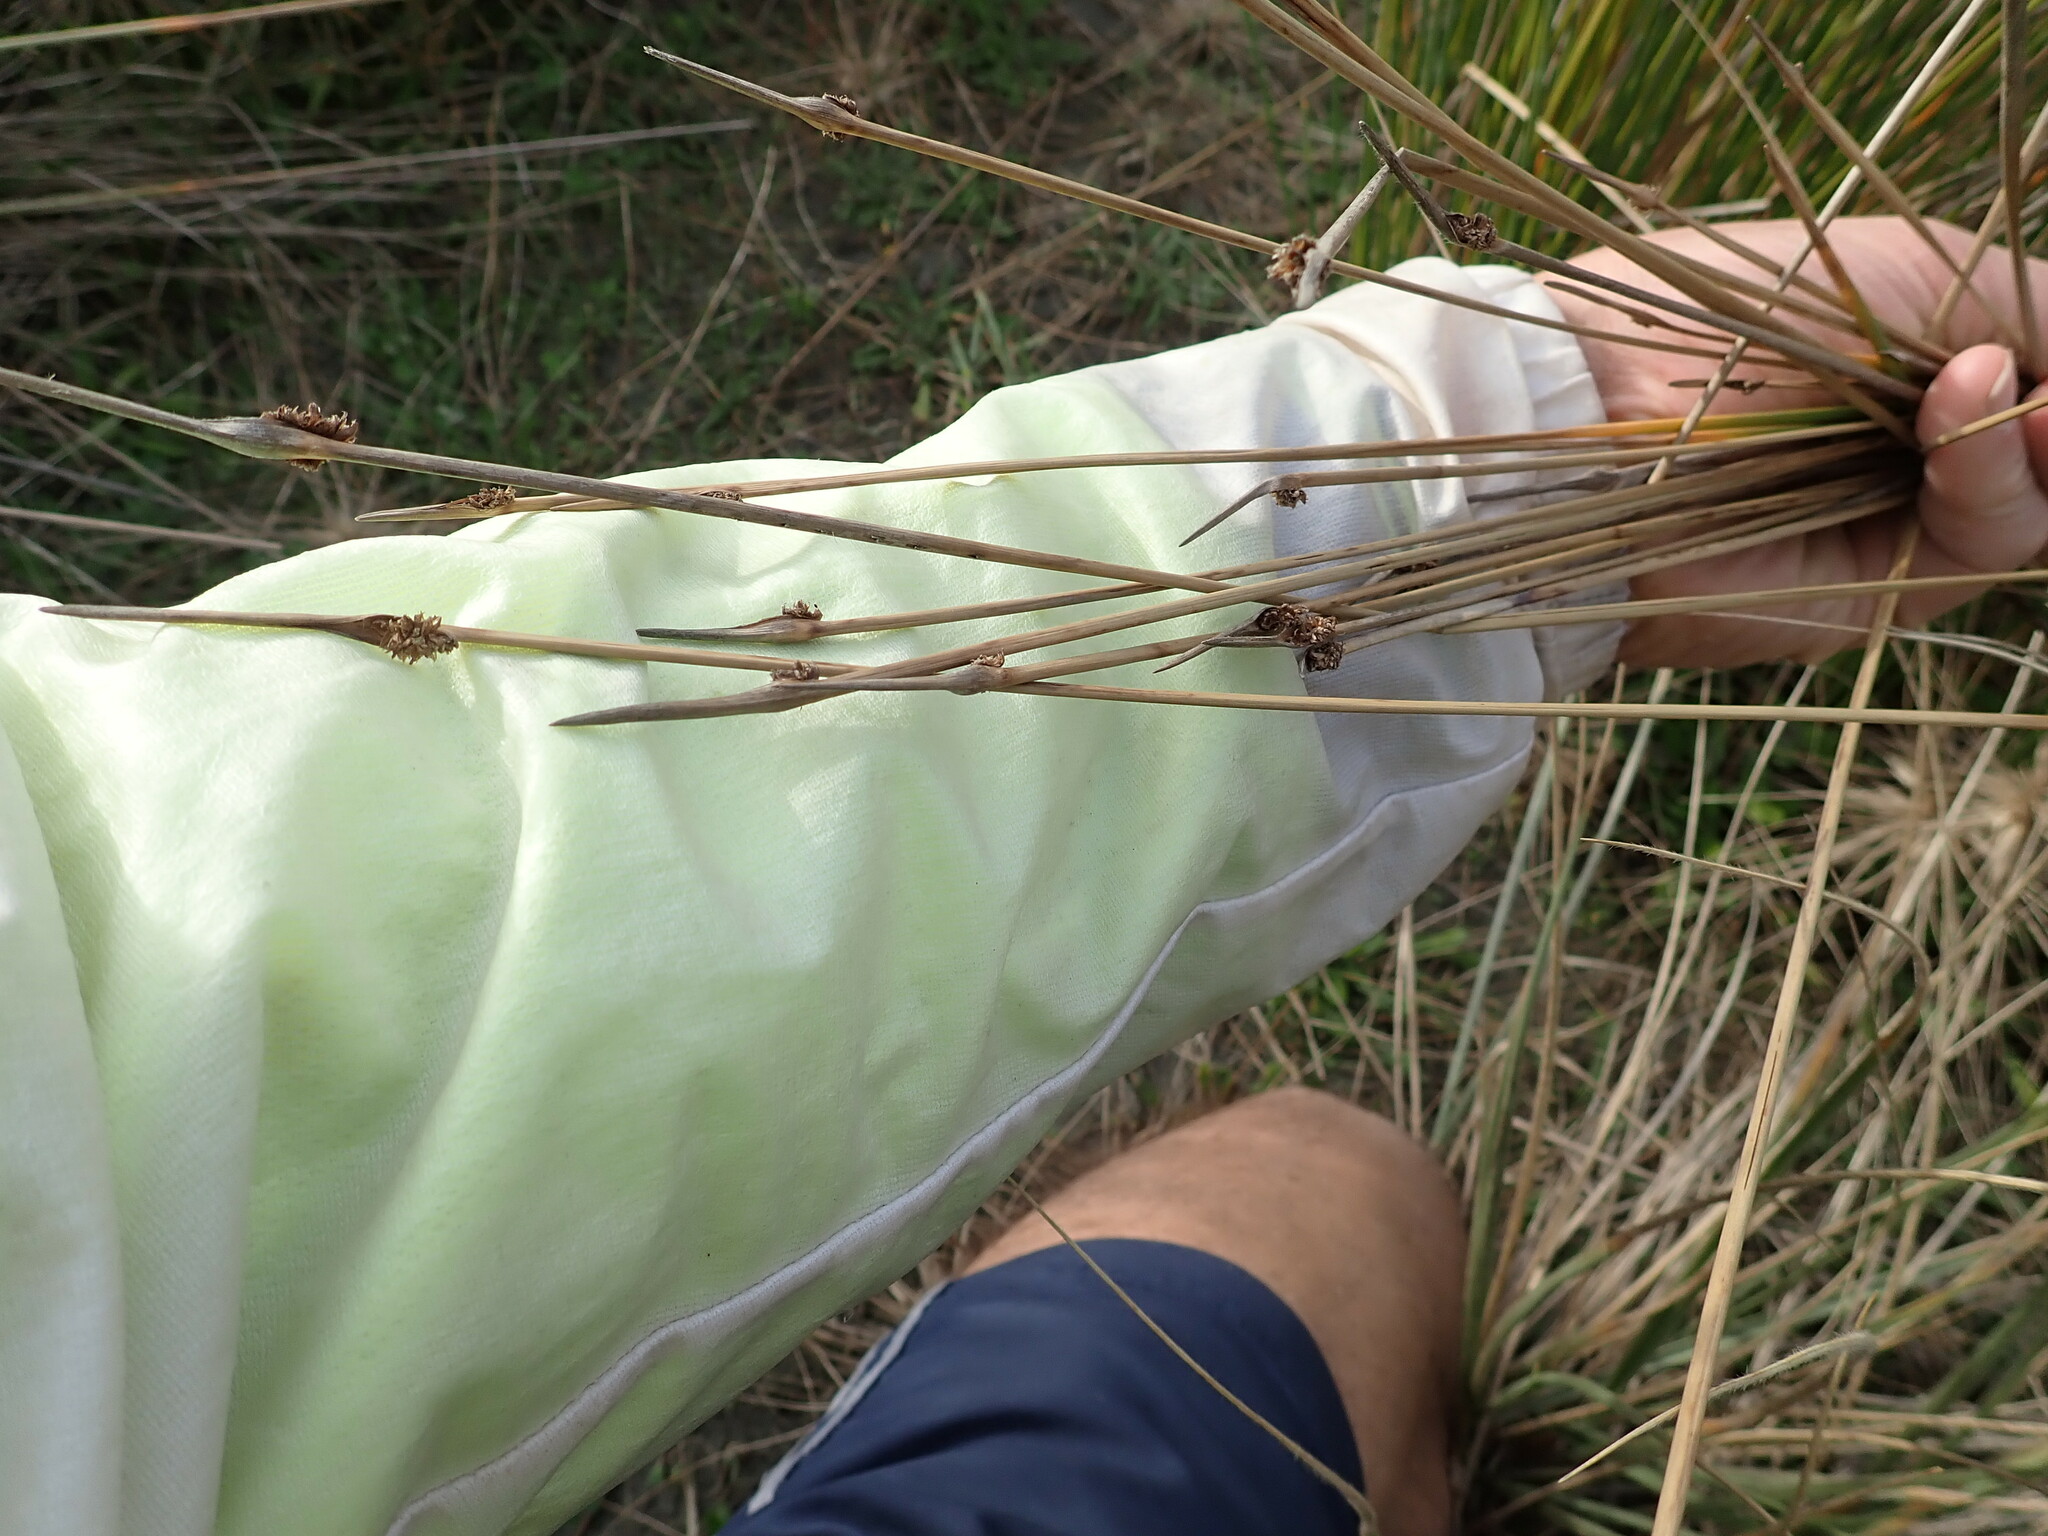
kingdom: Plantae
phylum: Tracheophyta
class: Liliopsida
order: Poales
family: Cyperaceae
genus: Ficinia
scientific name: Ficinia nodosa
